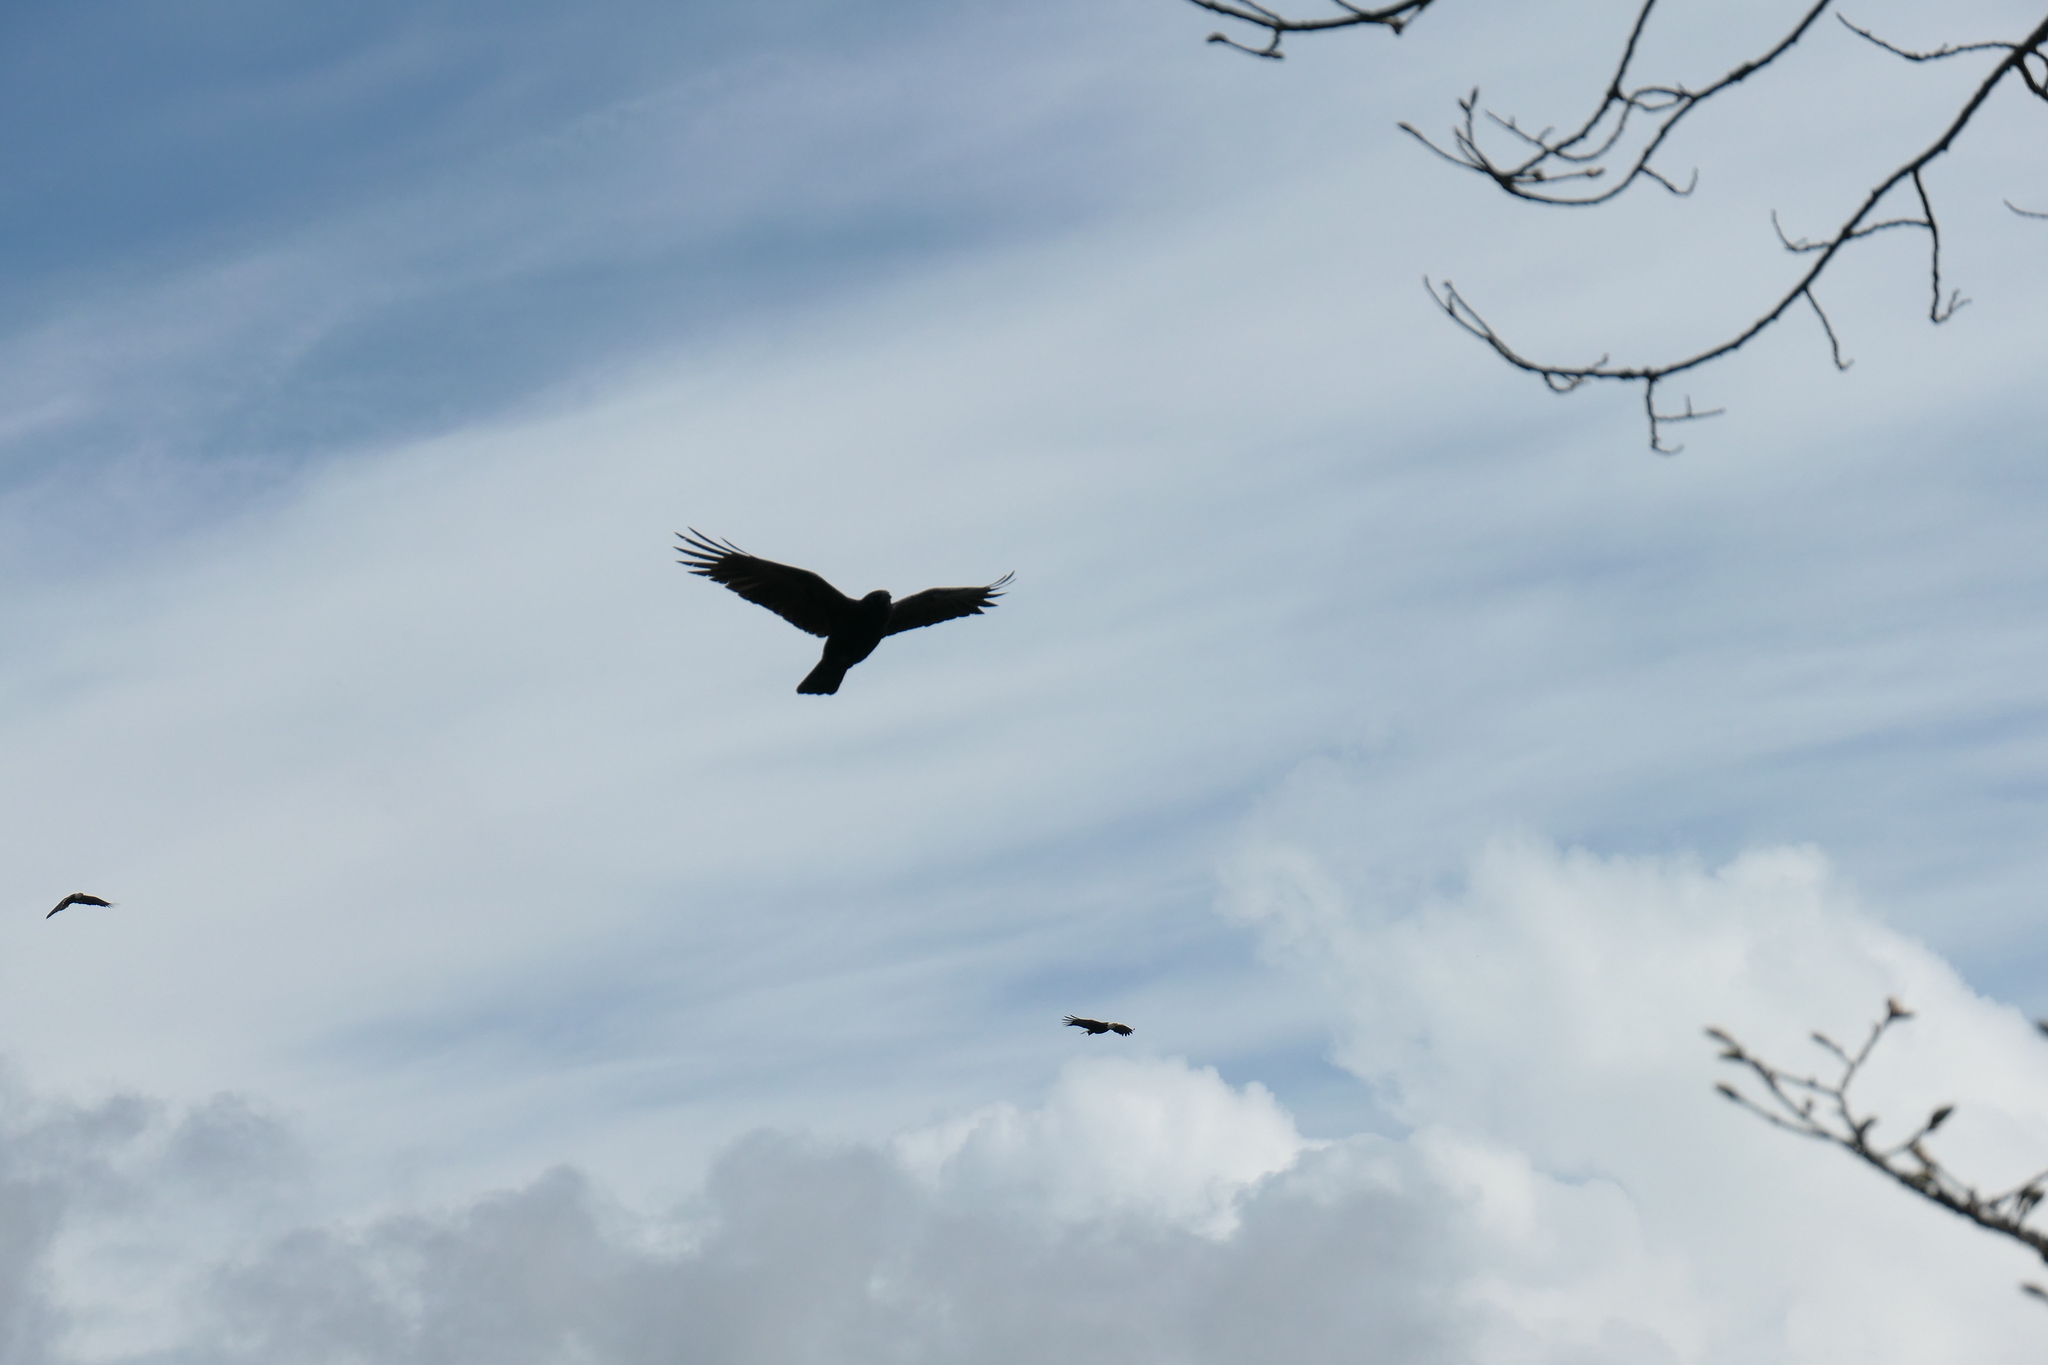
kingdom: Animalia
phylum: Chordata
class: Aves
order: Accipitriformes
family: Accipitridae
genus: Haliaeetus
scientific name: Haliaeetus leucocephalus
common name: Bald eagle
